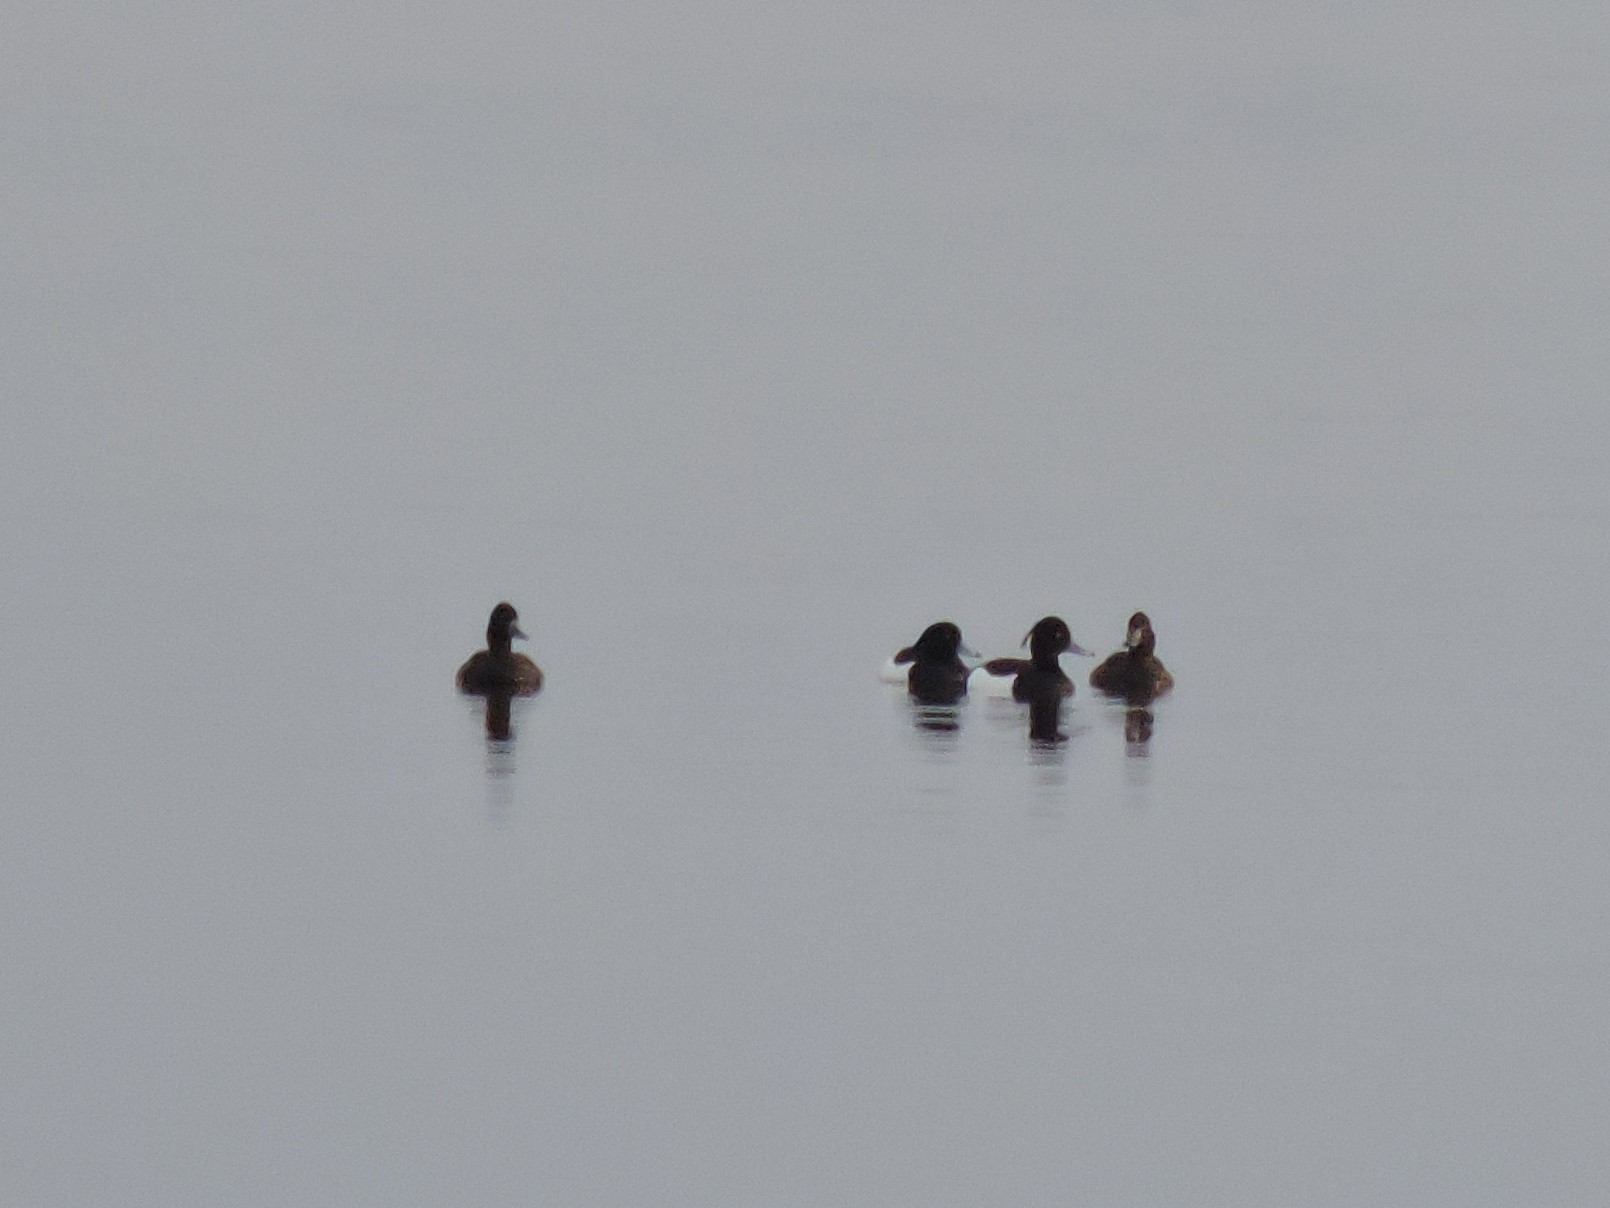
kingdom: Animalia
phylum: Chordata
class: Aves
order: Anseriformes
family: Anatidae
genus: Aythya
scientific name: Aythya fuligula
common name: Tufted duck
